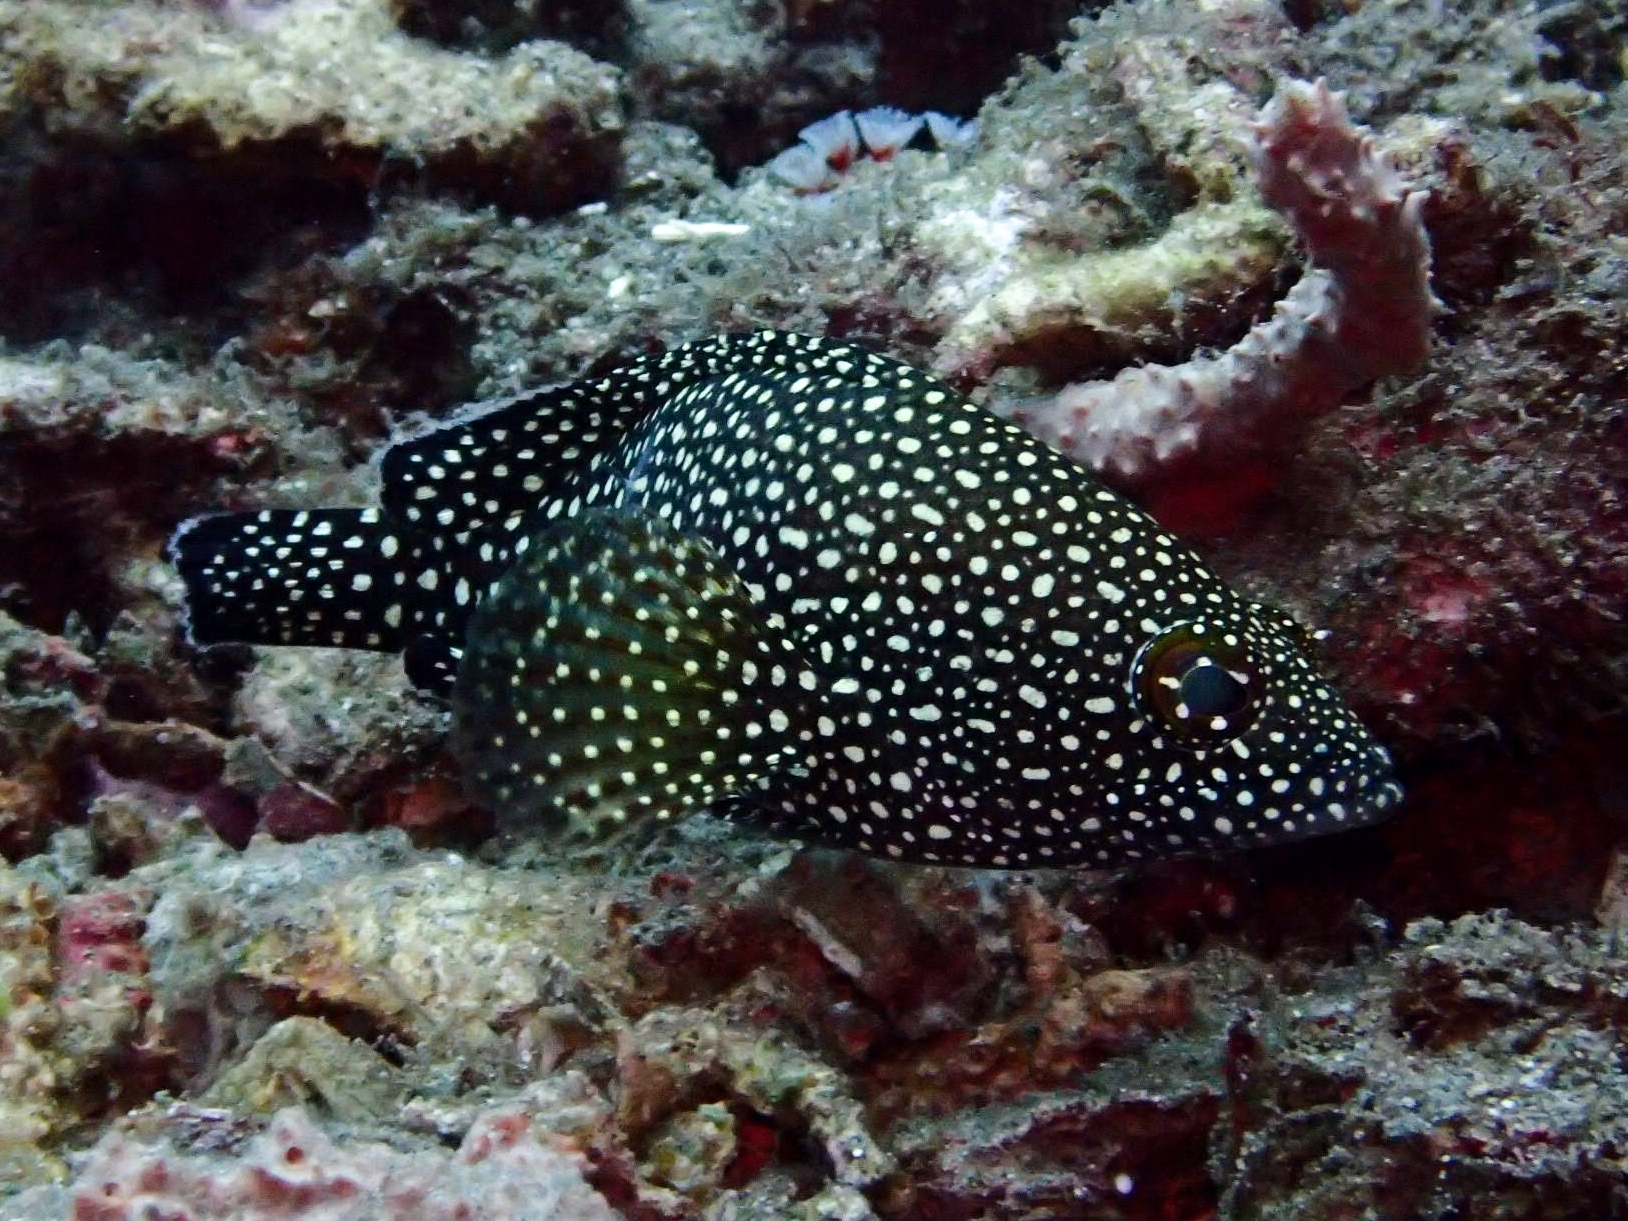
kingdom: Animalia
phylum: Chordata
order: Perciformes
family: Serranidae
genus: Epinephelus
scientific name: Epinephelus ongus
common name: White-streaked grouper
